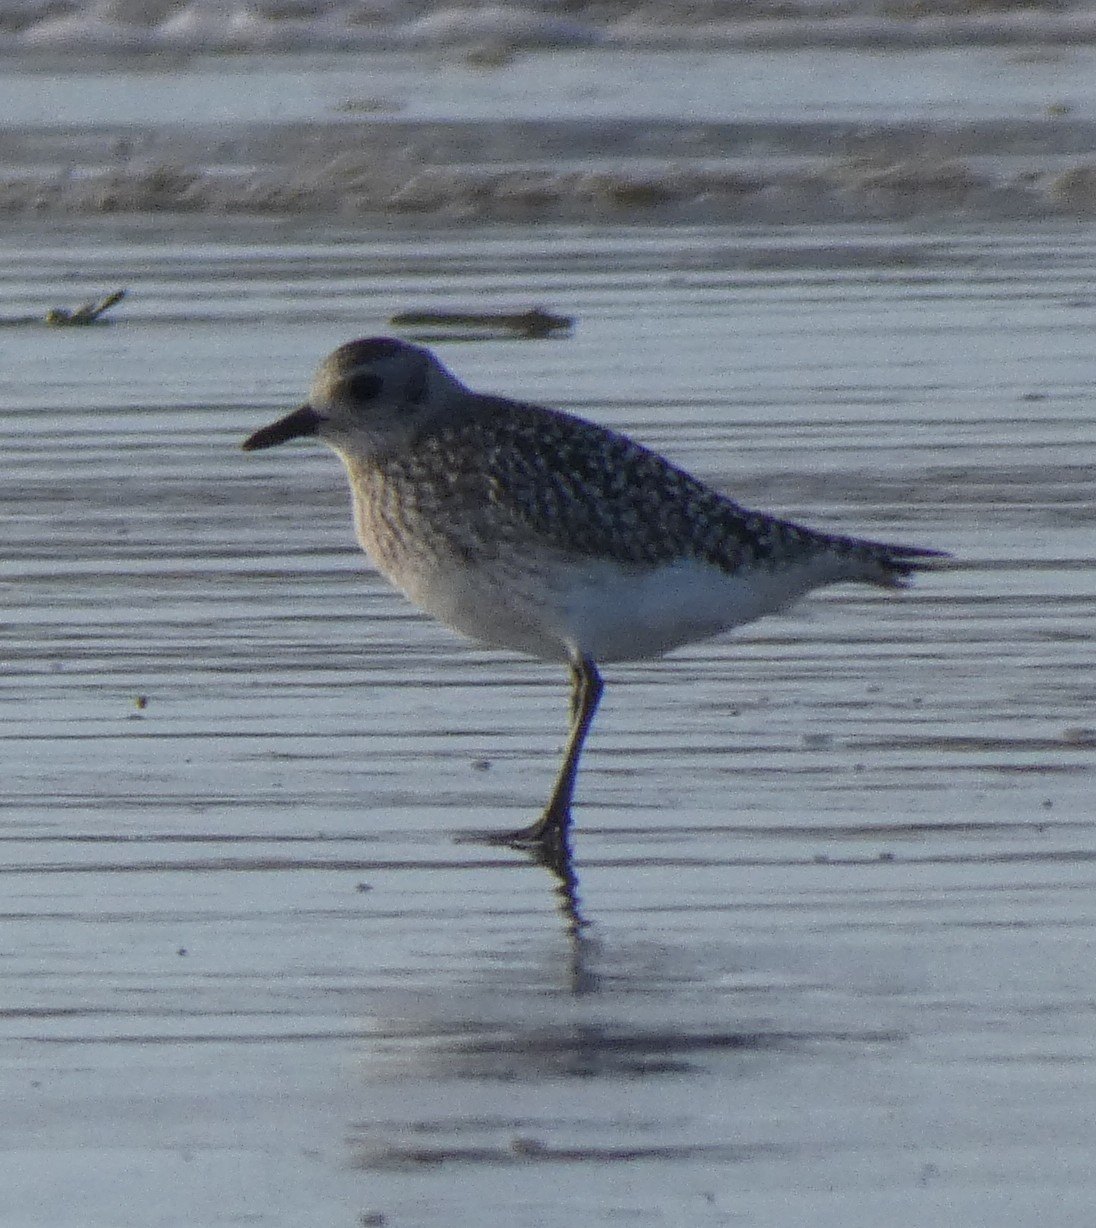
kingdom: Animalia
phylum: Chordata
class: Aves
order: Charadriiformes
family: Charadriidae
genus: Pluvialis
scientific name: Pluvialis squatarola
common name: Grey plover
